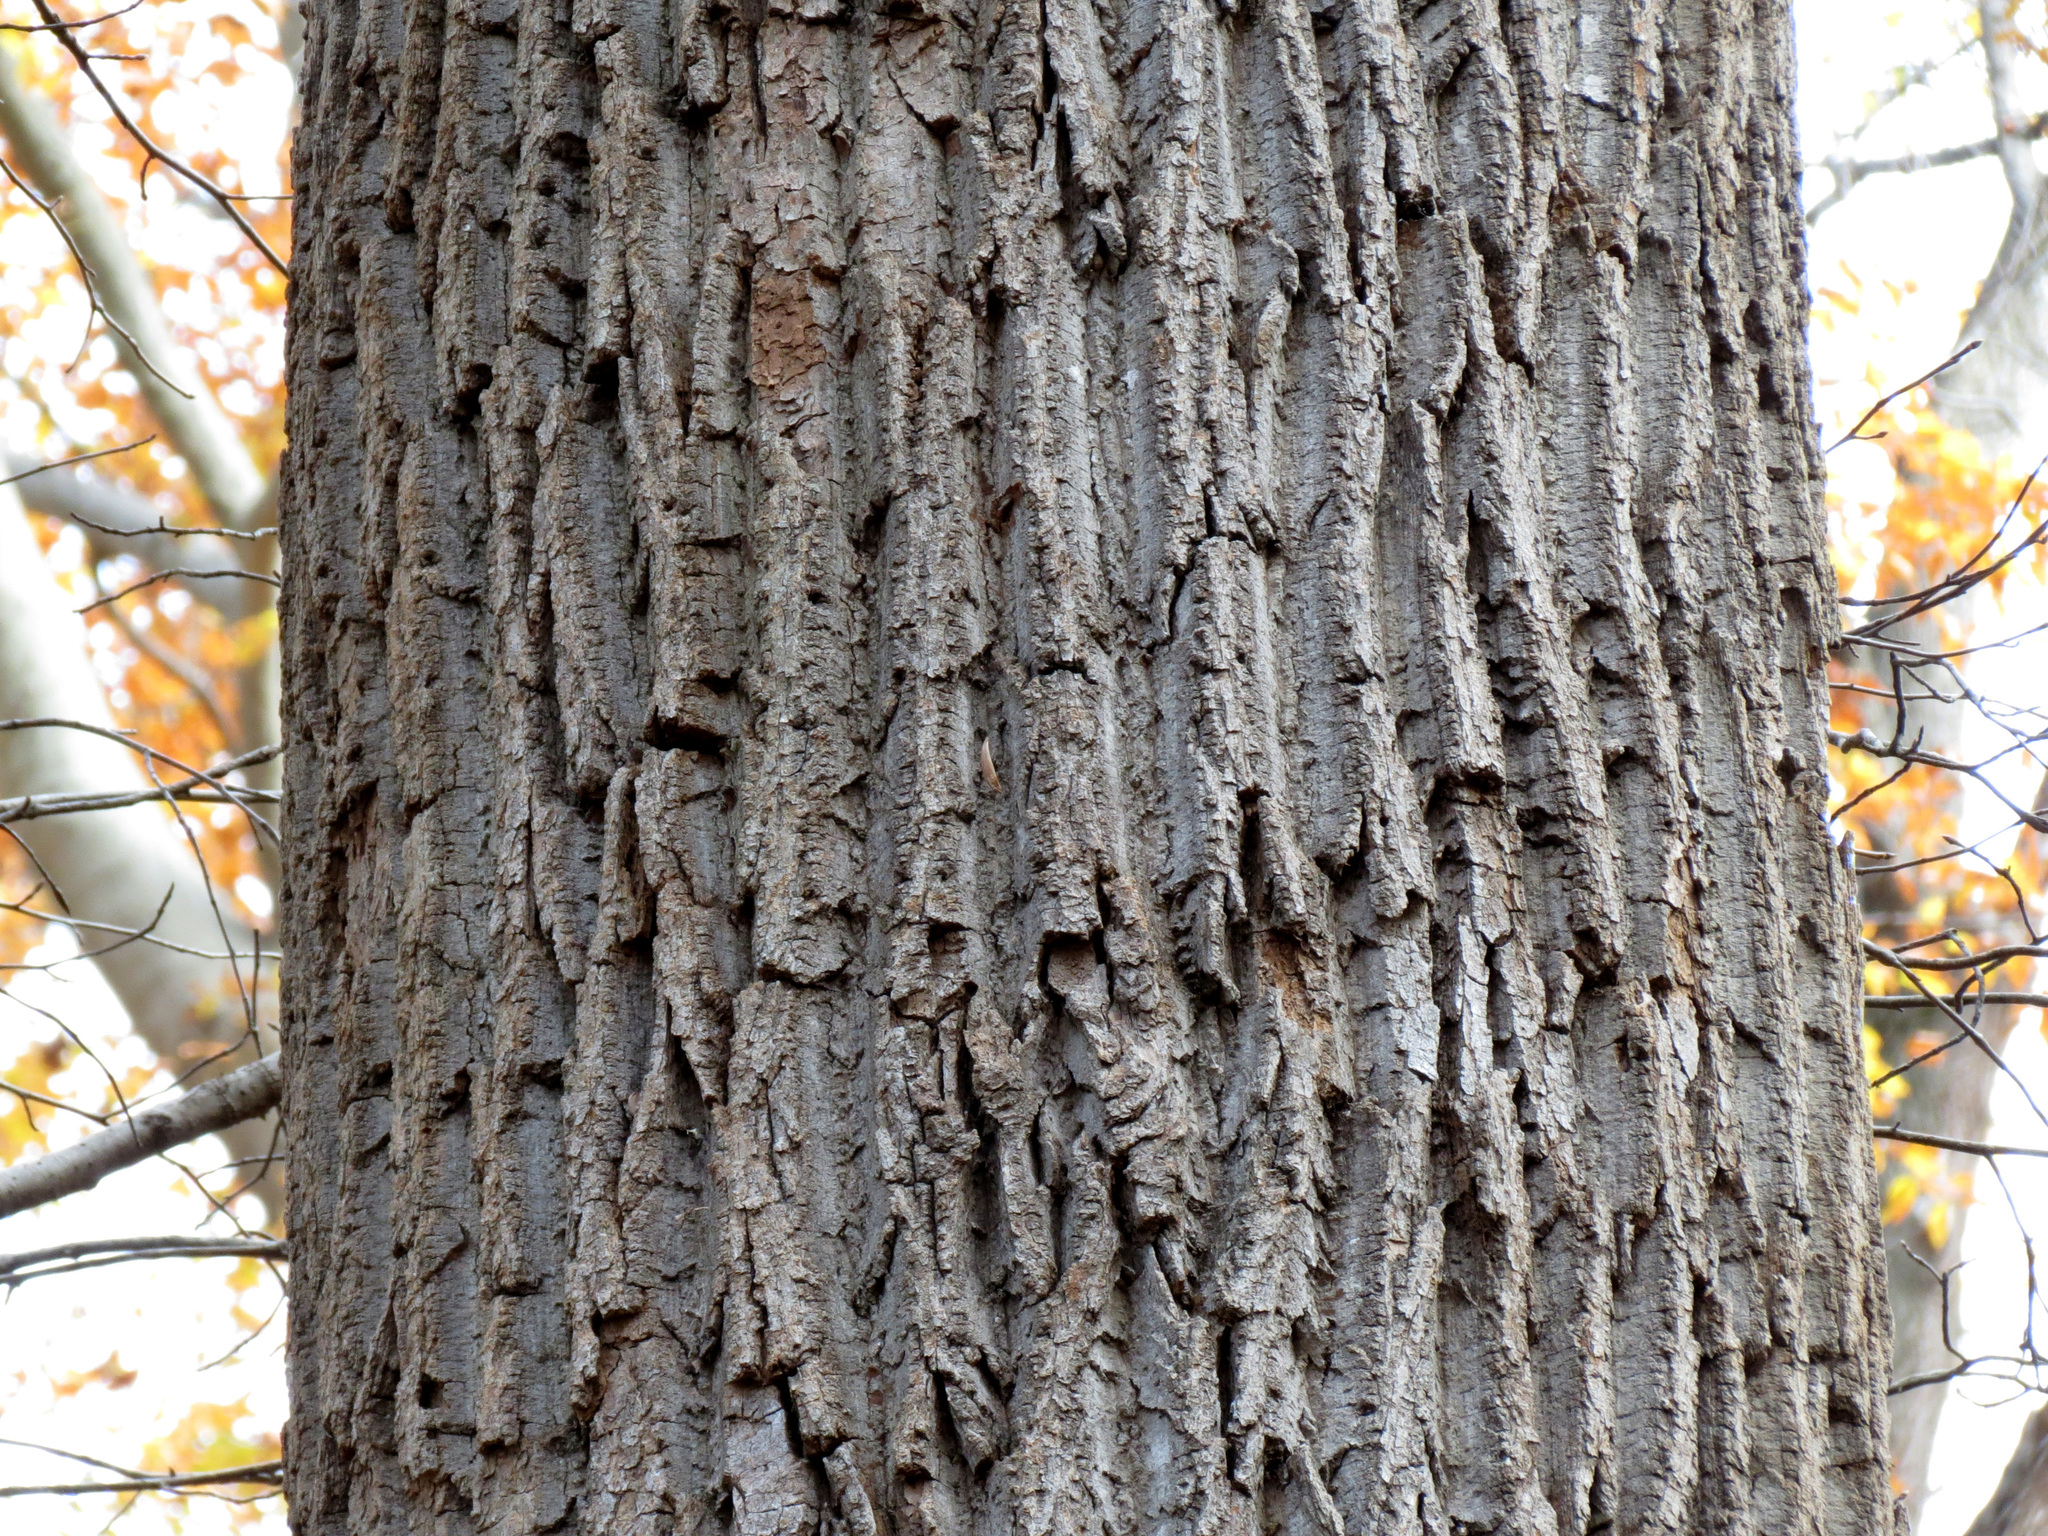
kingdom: Plantae
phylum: Tracheophyta
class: Magnoliopsida
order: Magnoliales
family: Magnoliaceae
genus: Liriodendron
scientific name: Liriodendron tulipifera
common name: Tulip tree
